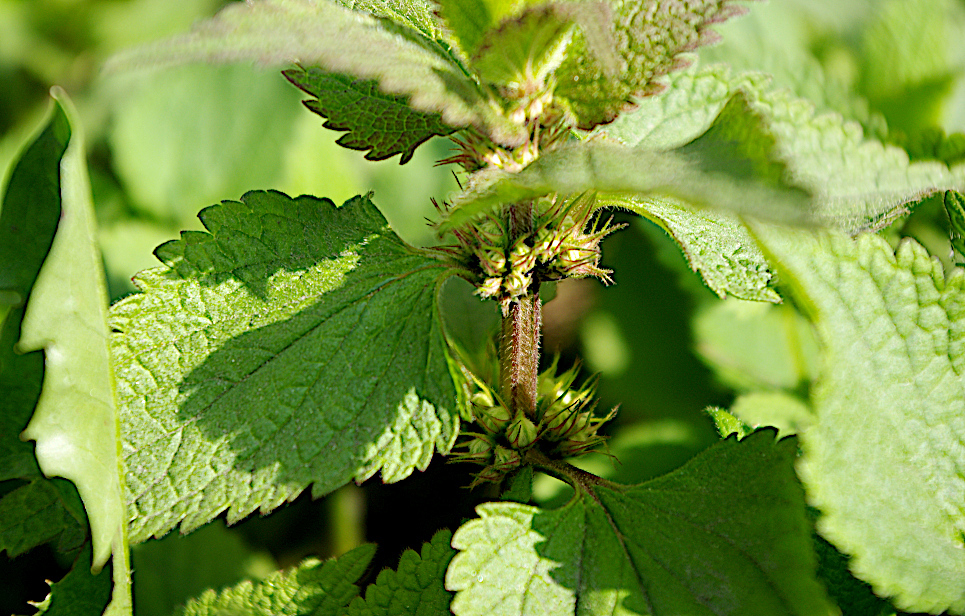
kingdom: Plantae
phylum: Tracheophyta
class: Magnoliopsida
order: Lamiales
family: Lamiaceae
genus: Lamium
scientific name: Lamium album
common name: White dead-nettle
